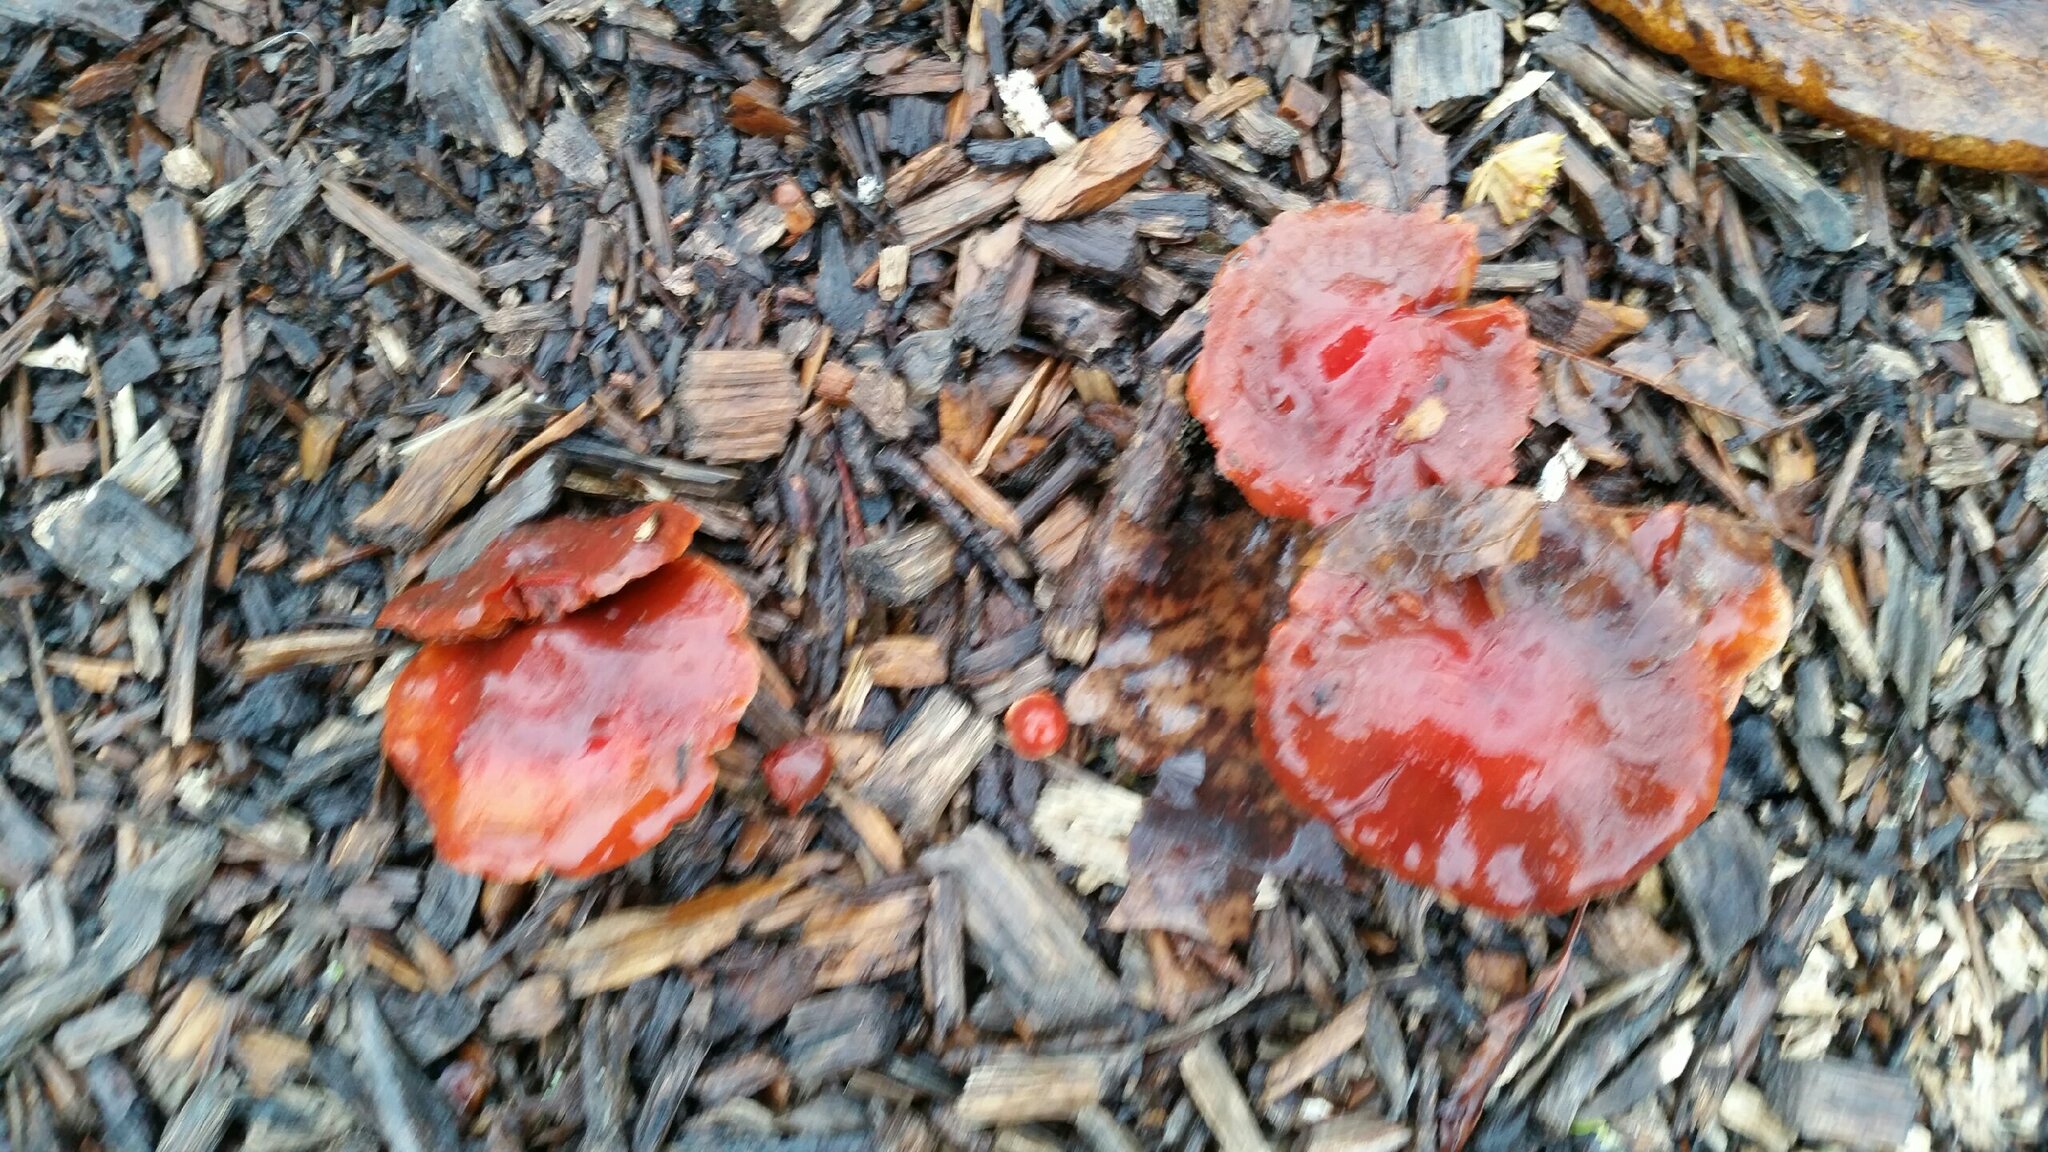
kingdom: Fungi
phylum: Basidiomycota
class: Agaricomycetes
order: Agaricales
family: Strophariaceae
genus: Leratiomyces
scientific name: Leratiomyces ceres
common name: Redlead roundhead
